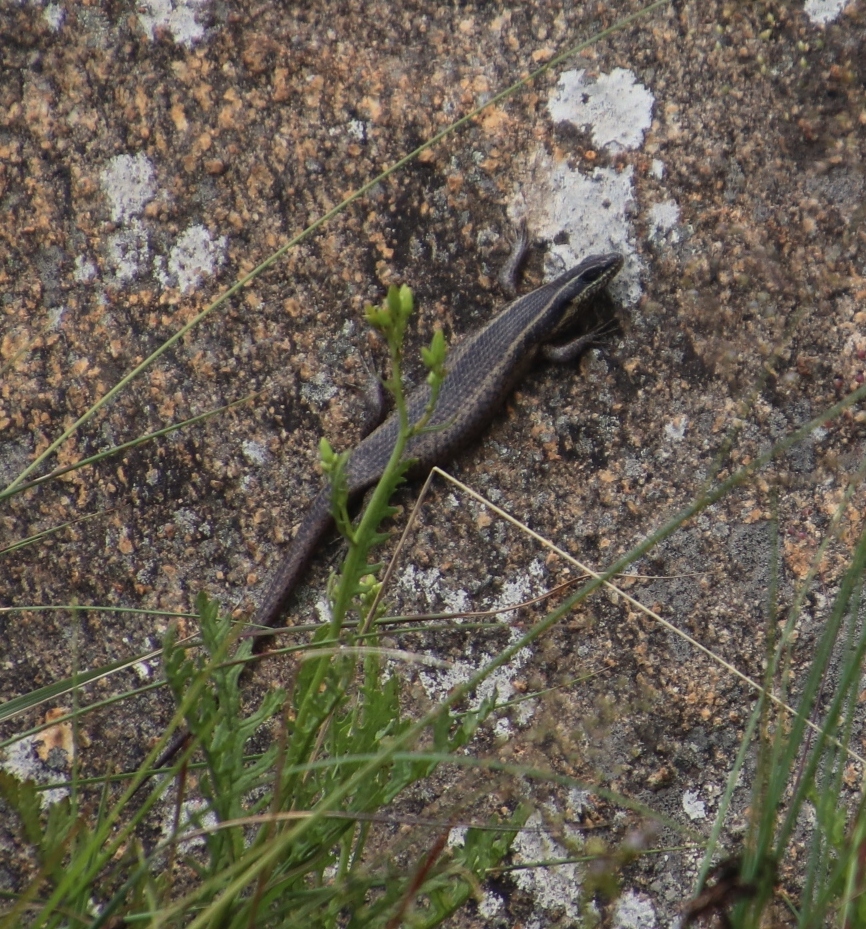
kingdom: Animalia
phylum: Chordata
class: Squamata
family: Scincidae
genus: Trachylepis
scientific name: Trachylepis punctatissima
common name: Montane speckled skink
